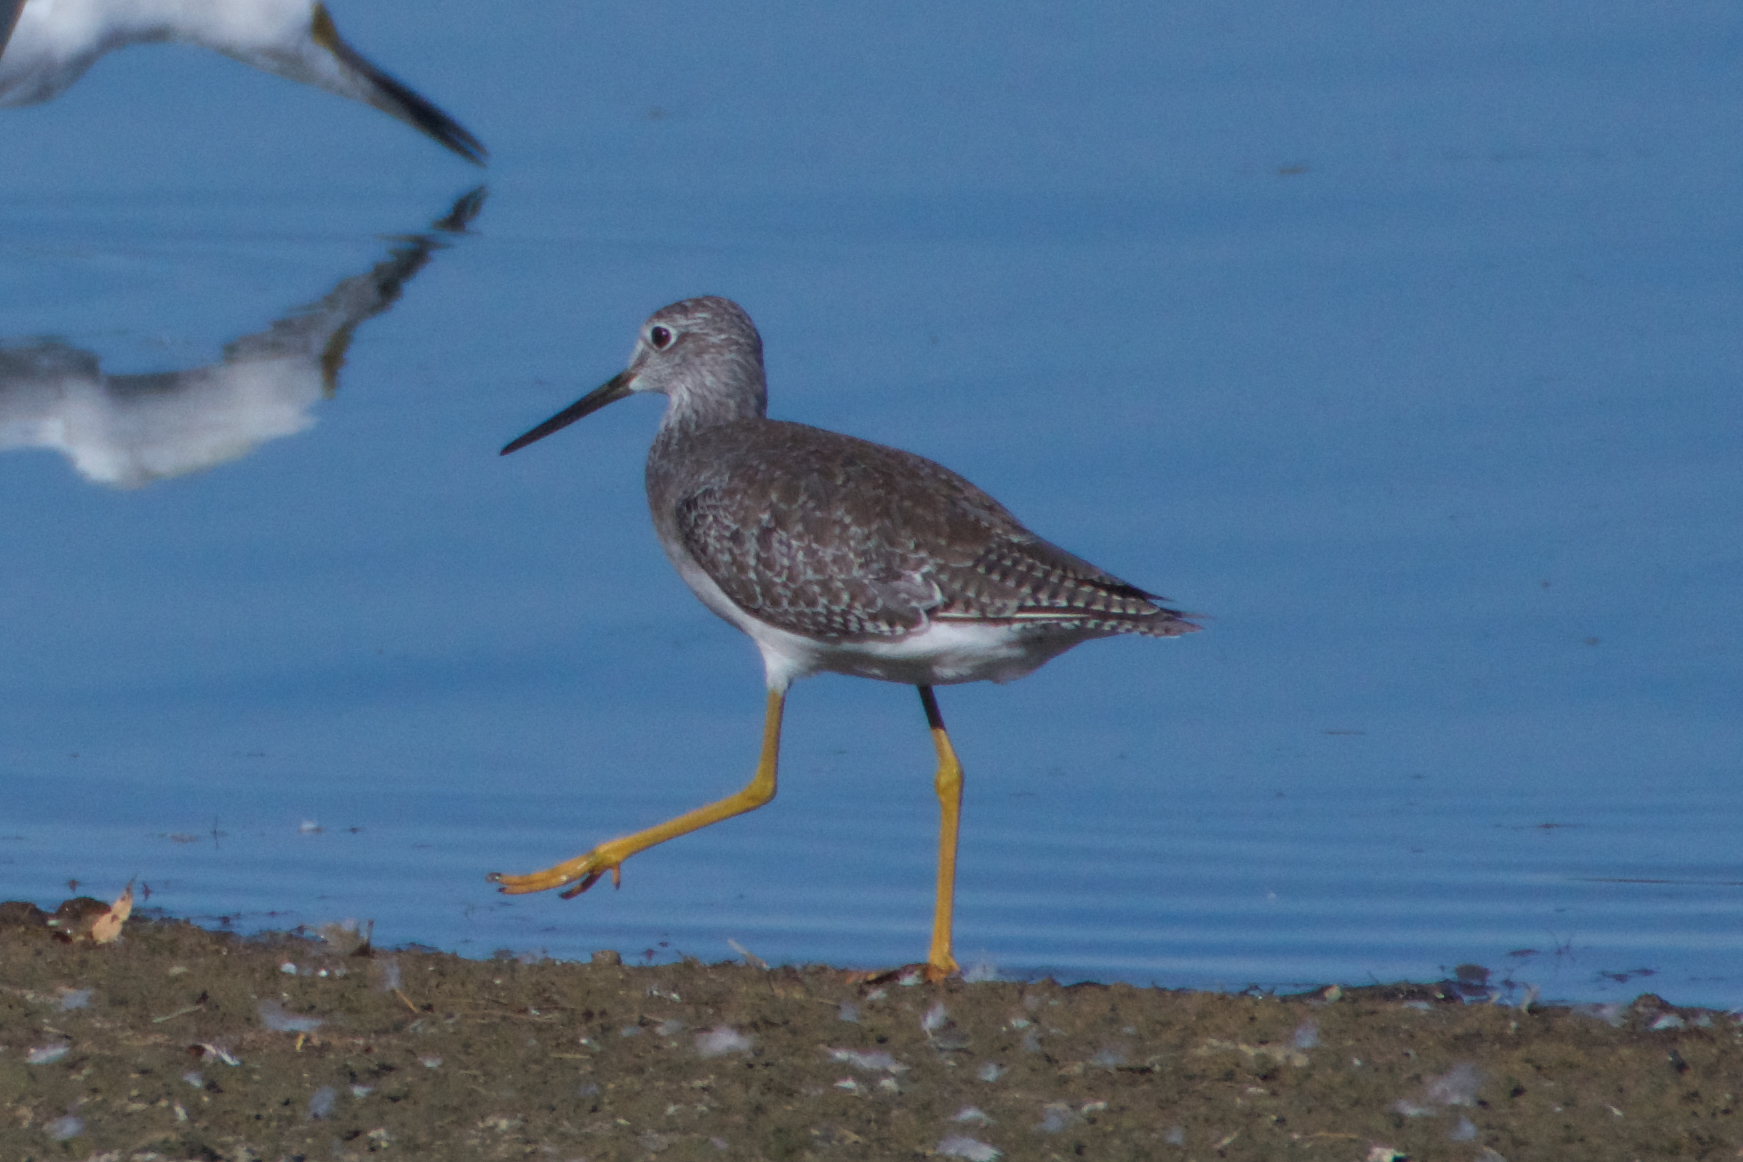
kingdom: Animalia
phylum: Chordata
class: Aves
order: Charadriiformes
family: Scolopacidae
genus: Tringa
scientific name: Tringa melanoleuca
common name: Greater yellowlegs
